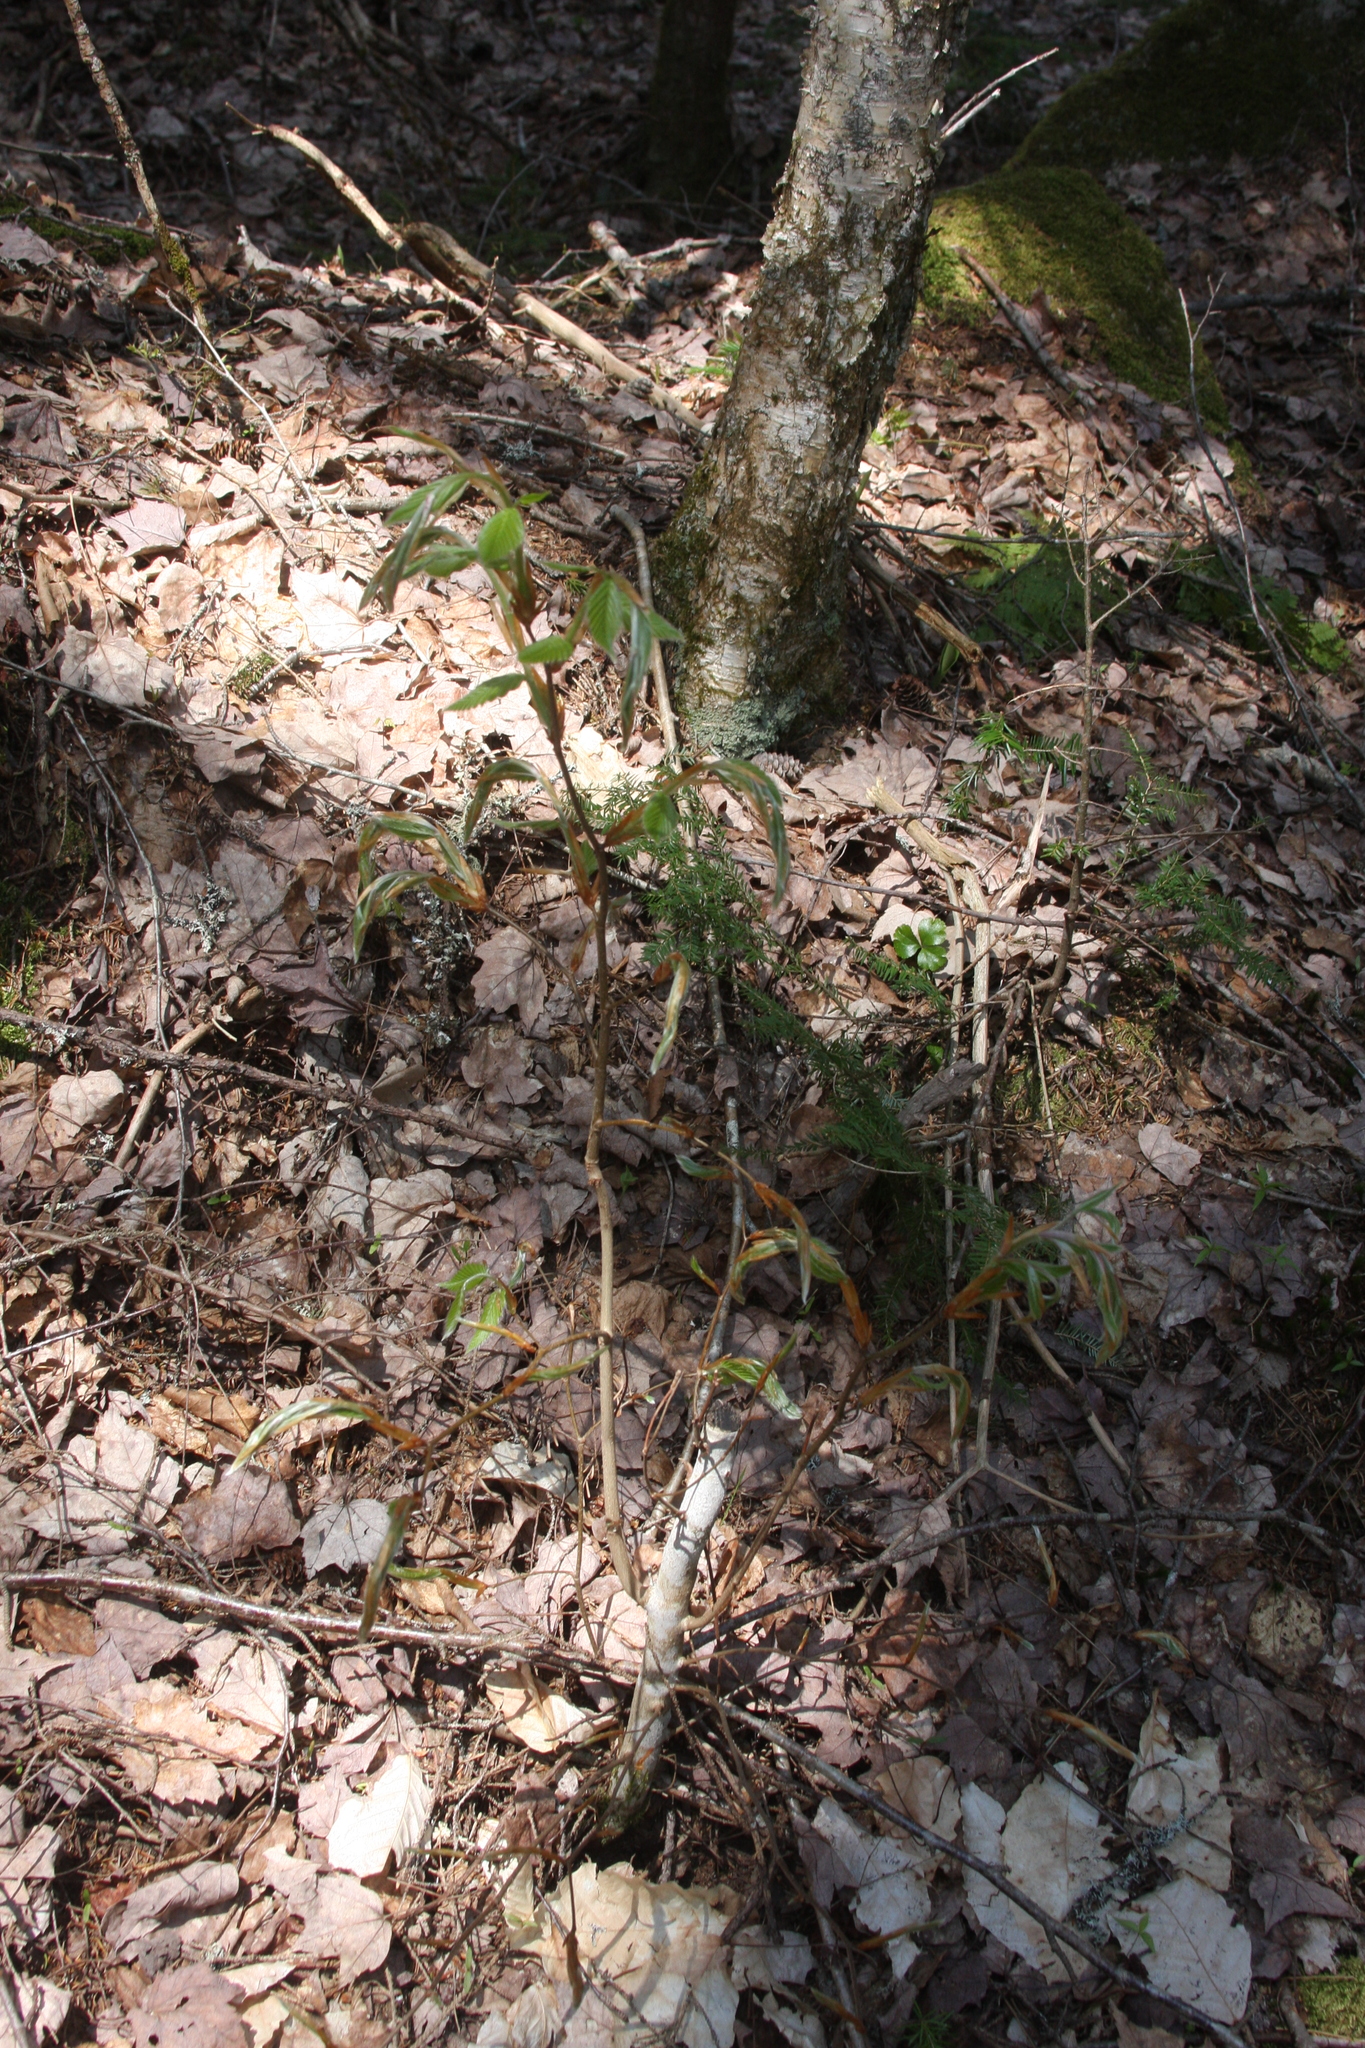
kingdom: Plantae
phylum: Tracheophyta
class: Magnoliopsida
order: Fagales
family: Fagaceae
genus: Fagus
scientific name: Fagus grandifolia
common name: American beech
